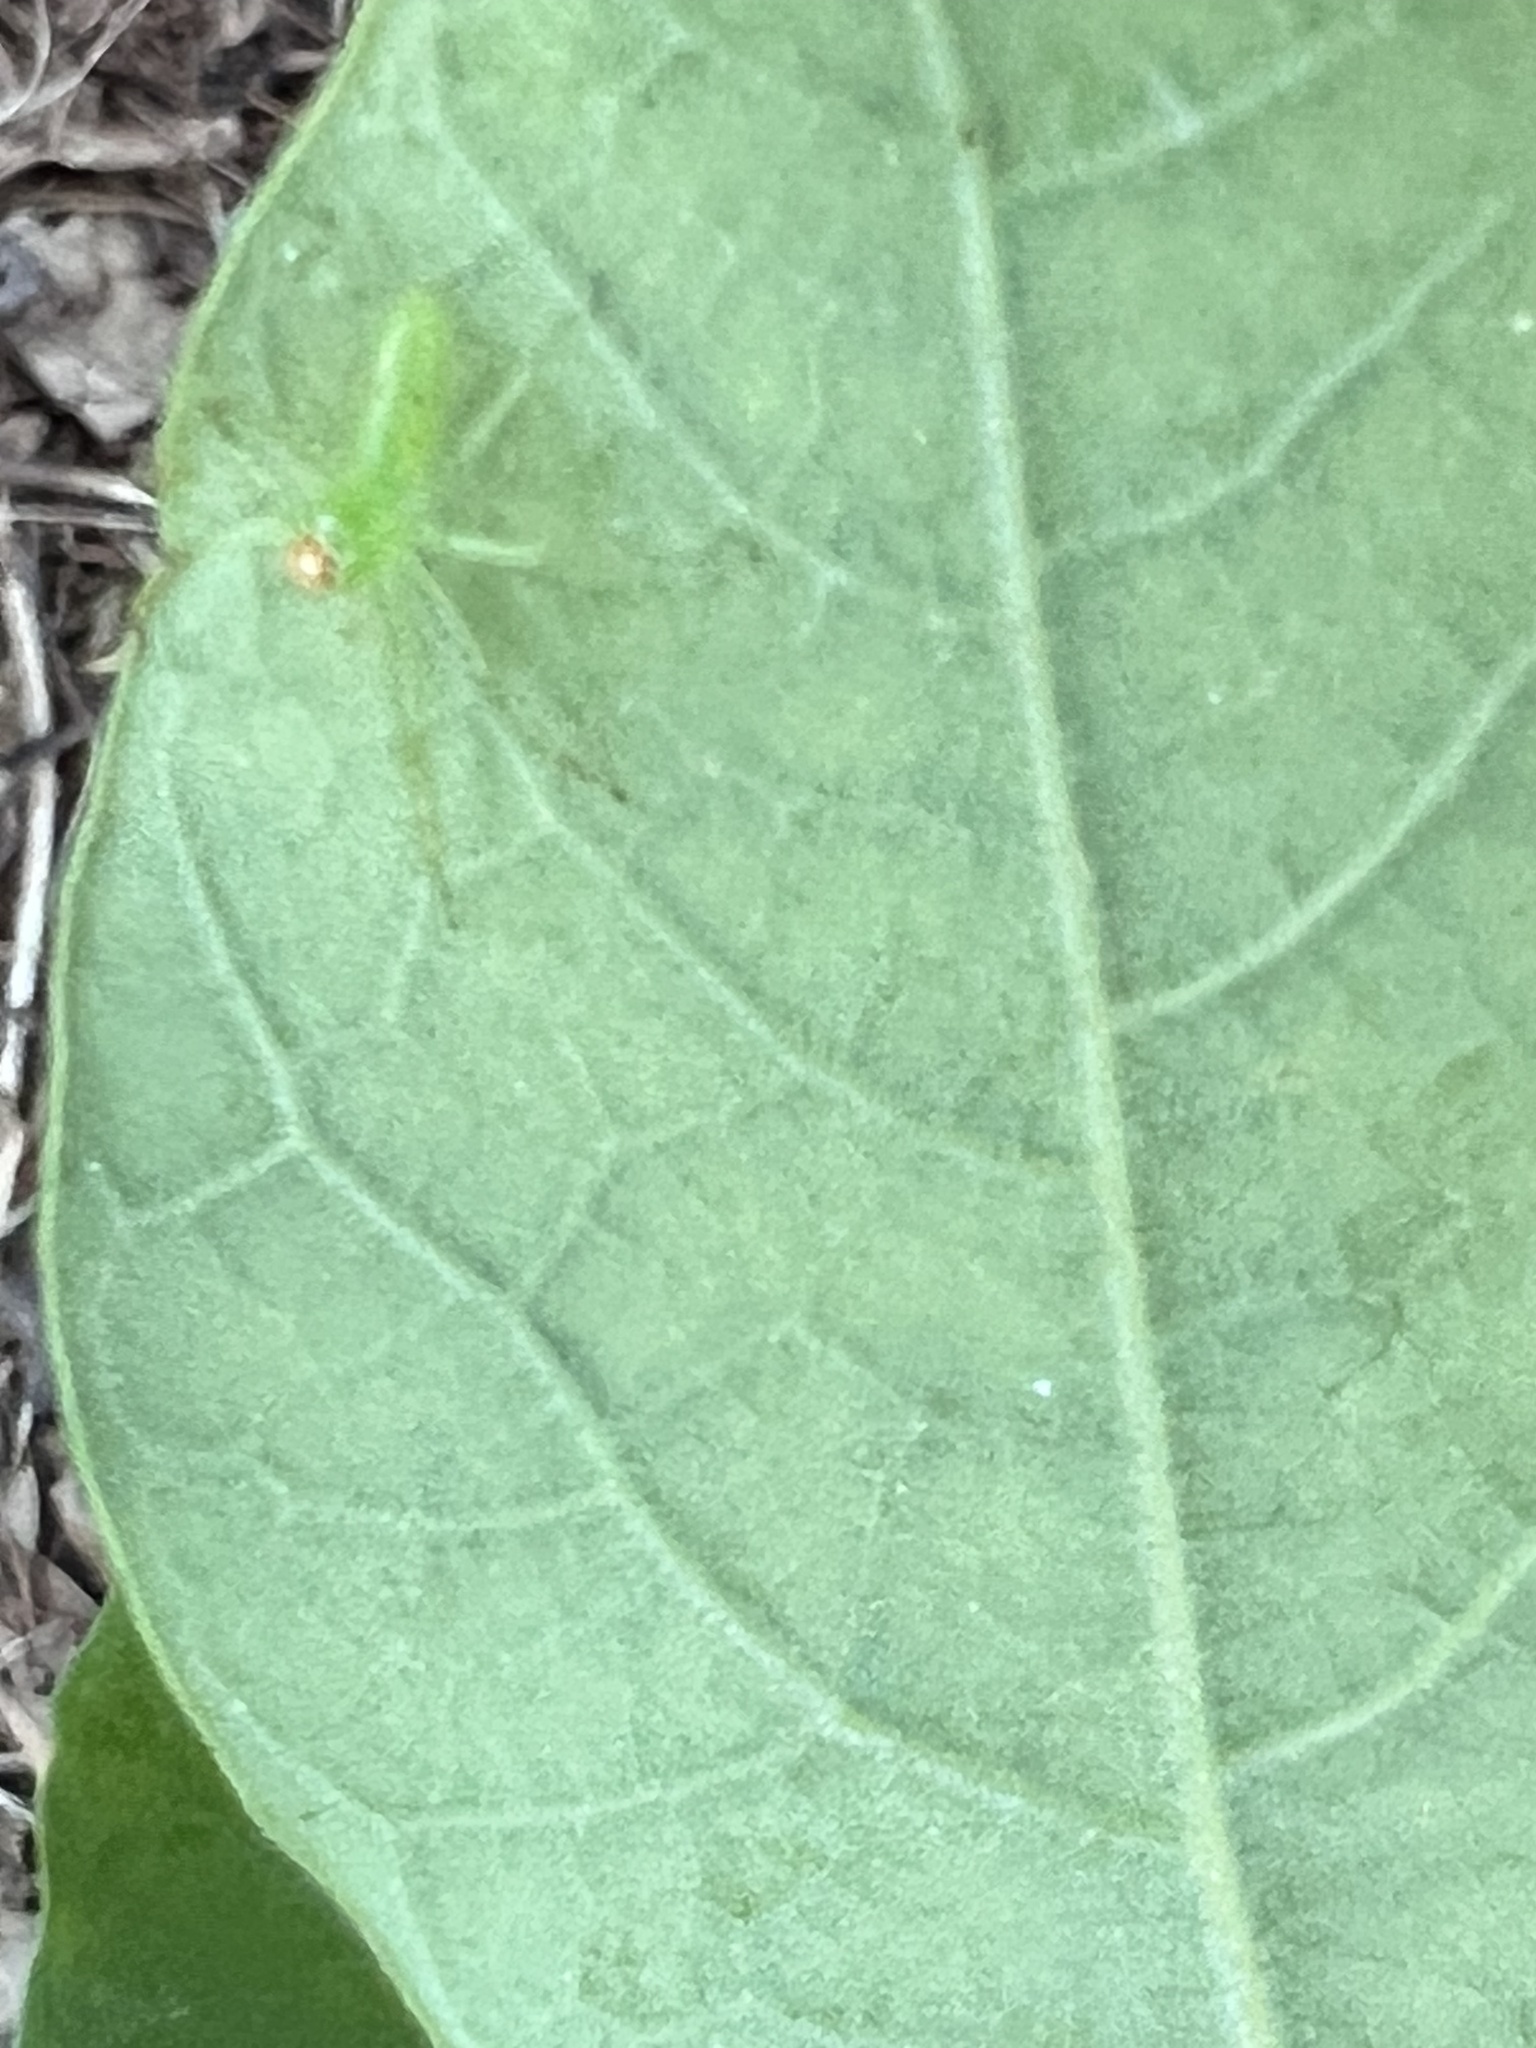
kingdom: Animalia
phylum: Arthropoda
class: Arachnida
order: Araneae
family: Salticidae
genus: Lyssomanes
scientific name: Lyssomanes viridis
